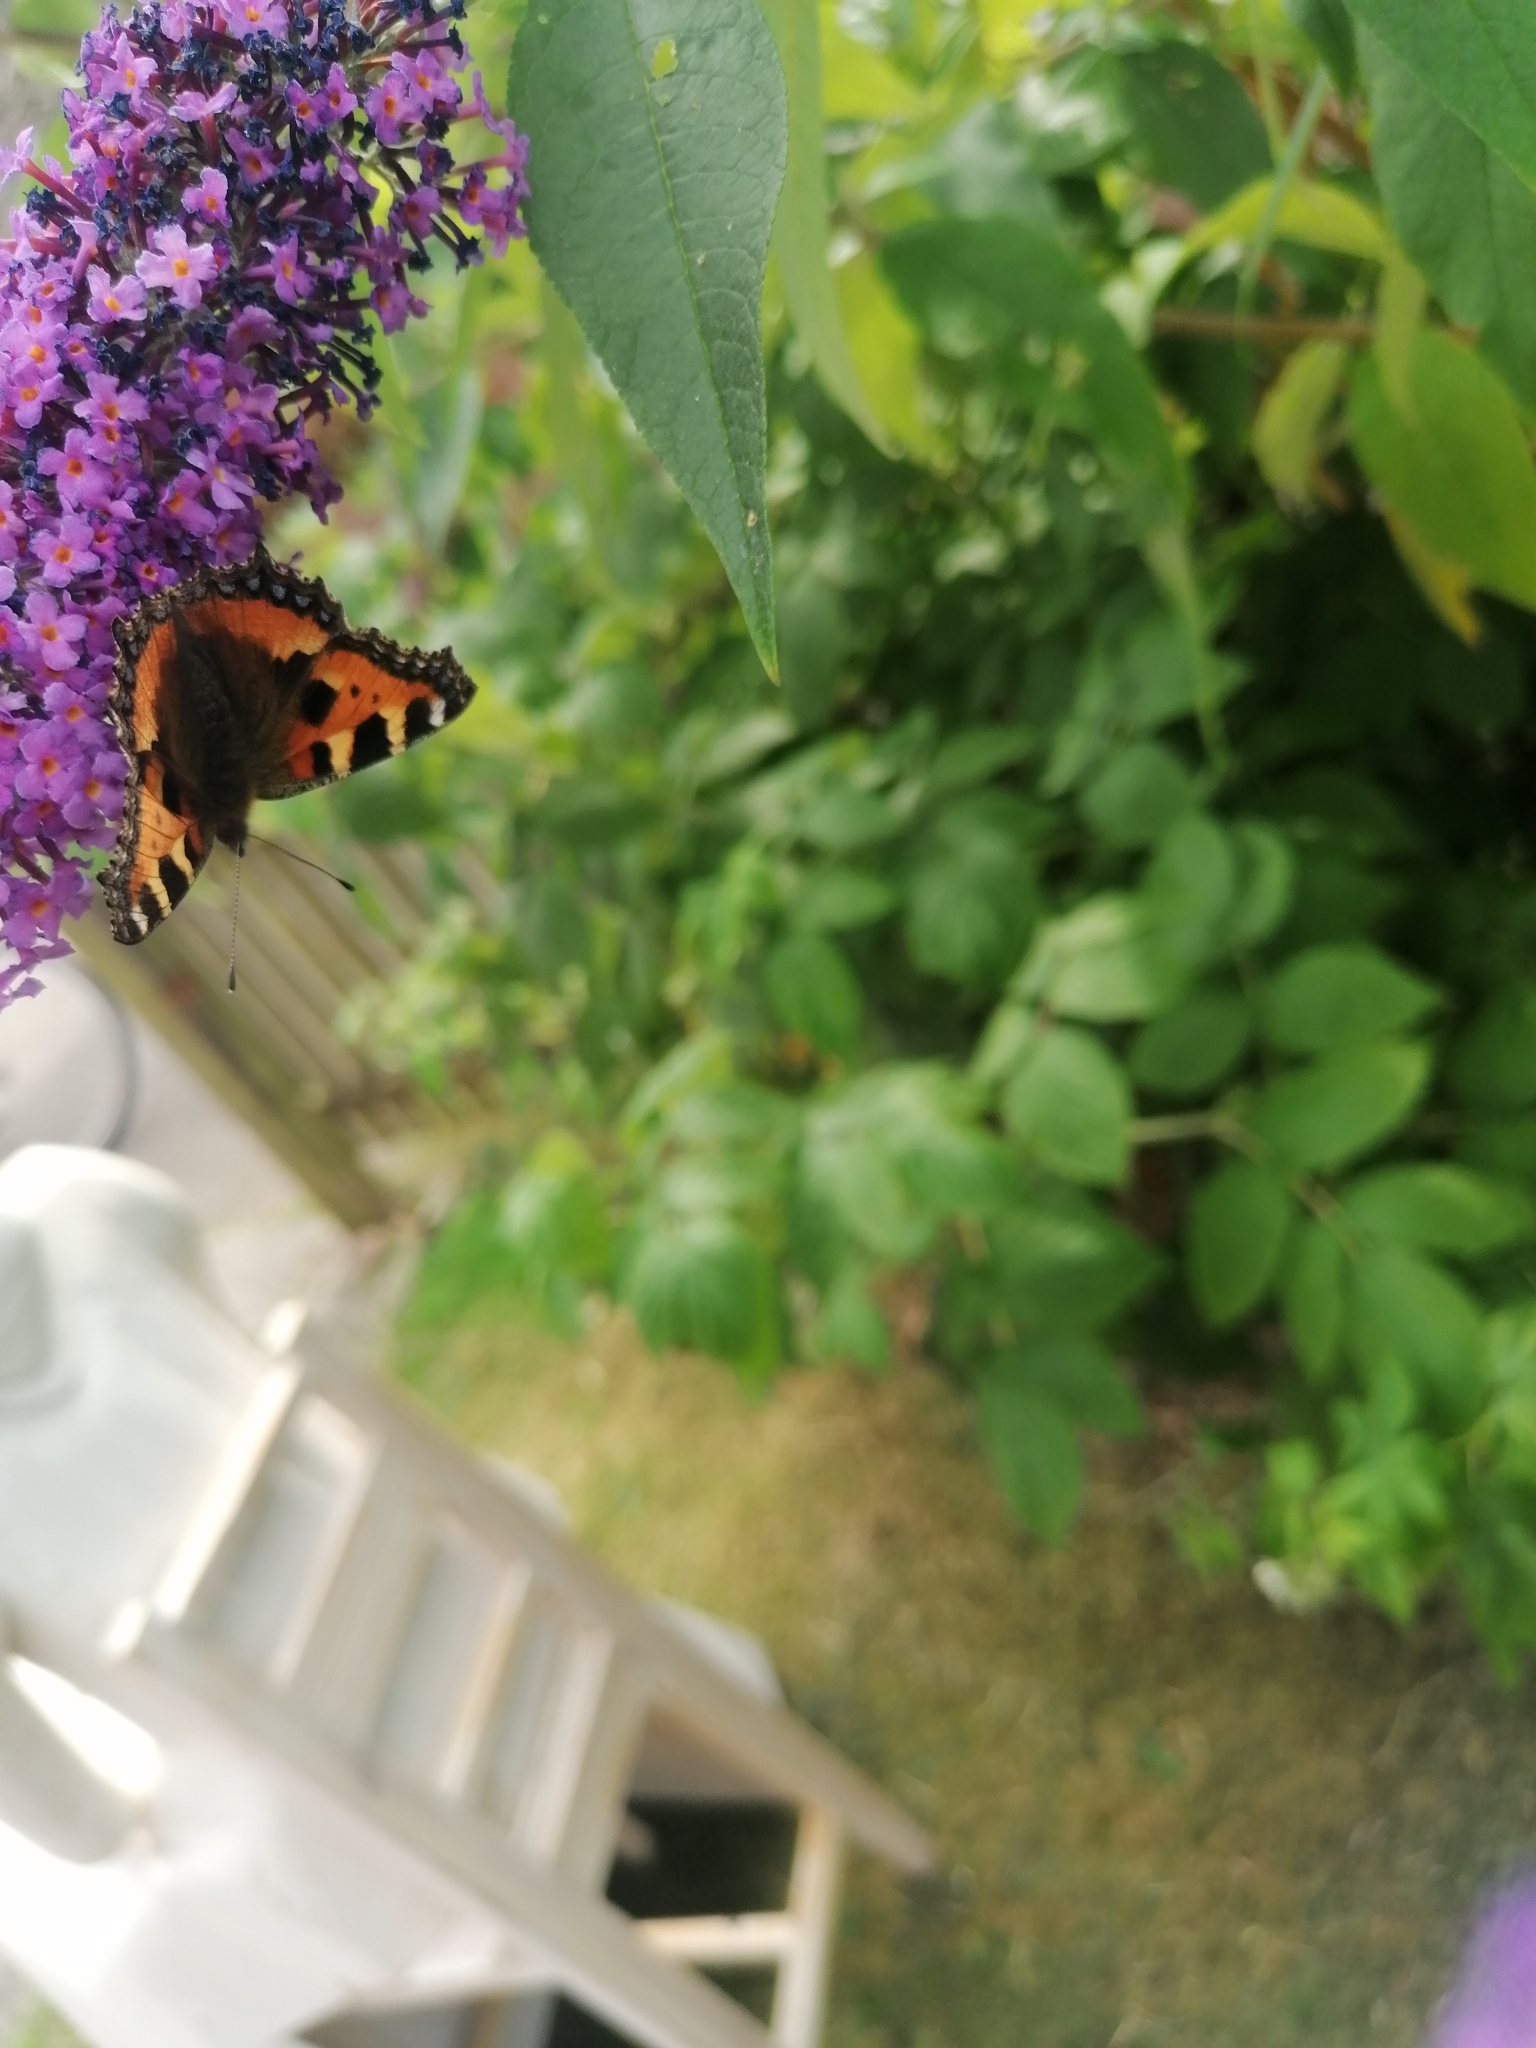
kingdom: Animalia
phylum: Arthropoda
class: Insecta
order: Lepidoptera
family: Nymphalidae
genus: Aglais
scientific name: Aglais urticae
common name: Small tortoiseshell
